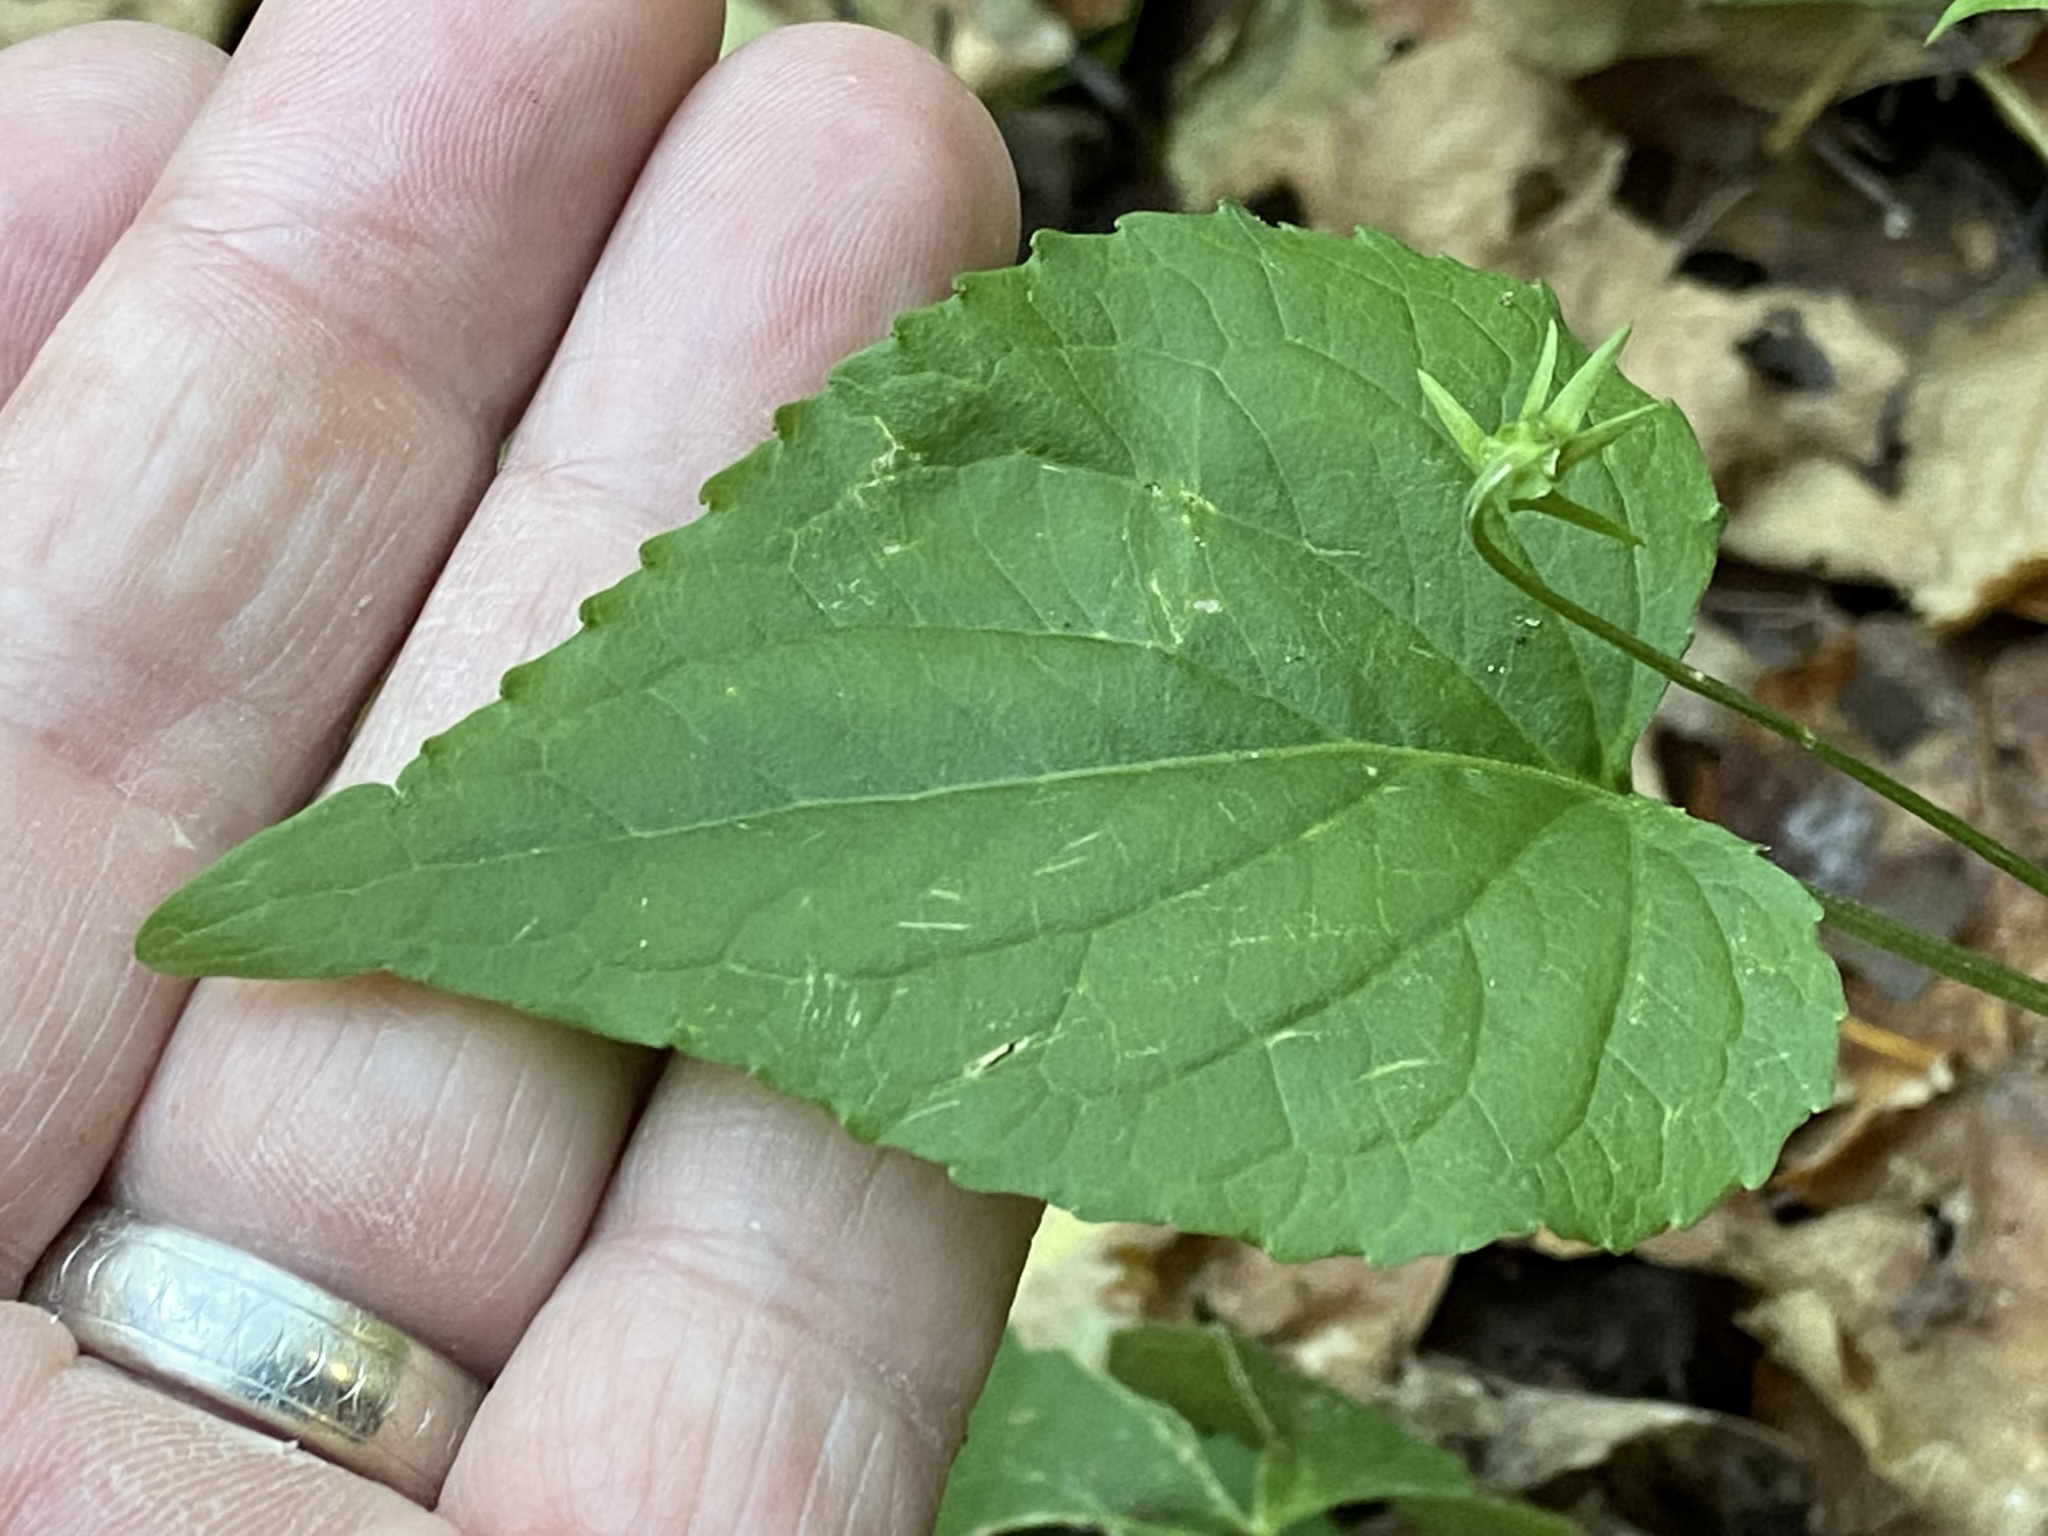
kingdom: Plantae
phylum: Tracheophyta
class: Magnoliopsida
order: Malpighiales
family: Violaceae
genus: Viola
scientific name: Viola scopulorum
